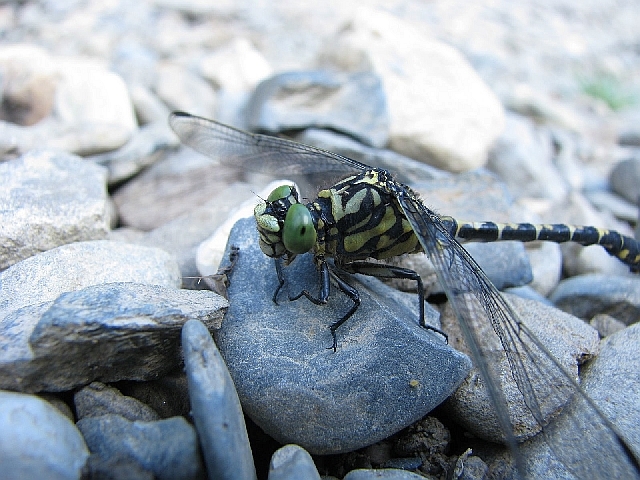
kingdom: Animalia
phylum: Arthropoda
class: Insecta
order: Odonata
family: Gomphidae
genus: Onychogomphus
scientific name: Onychogomphus forcipatus
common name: Small pincertail
